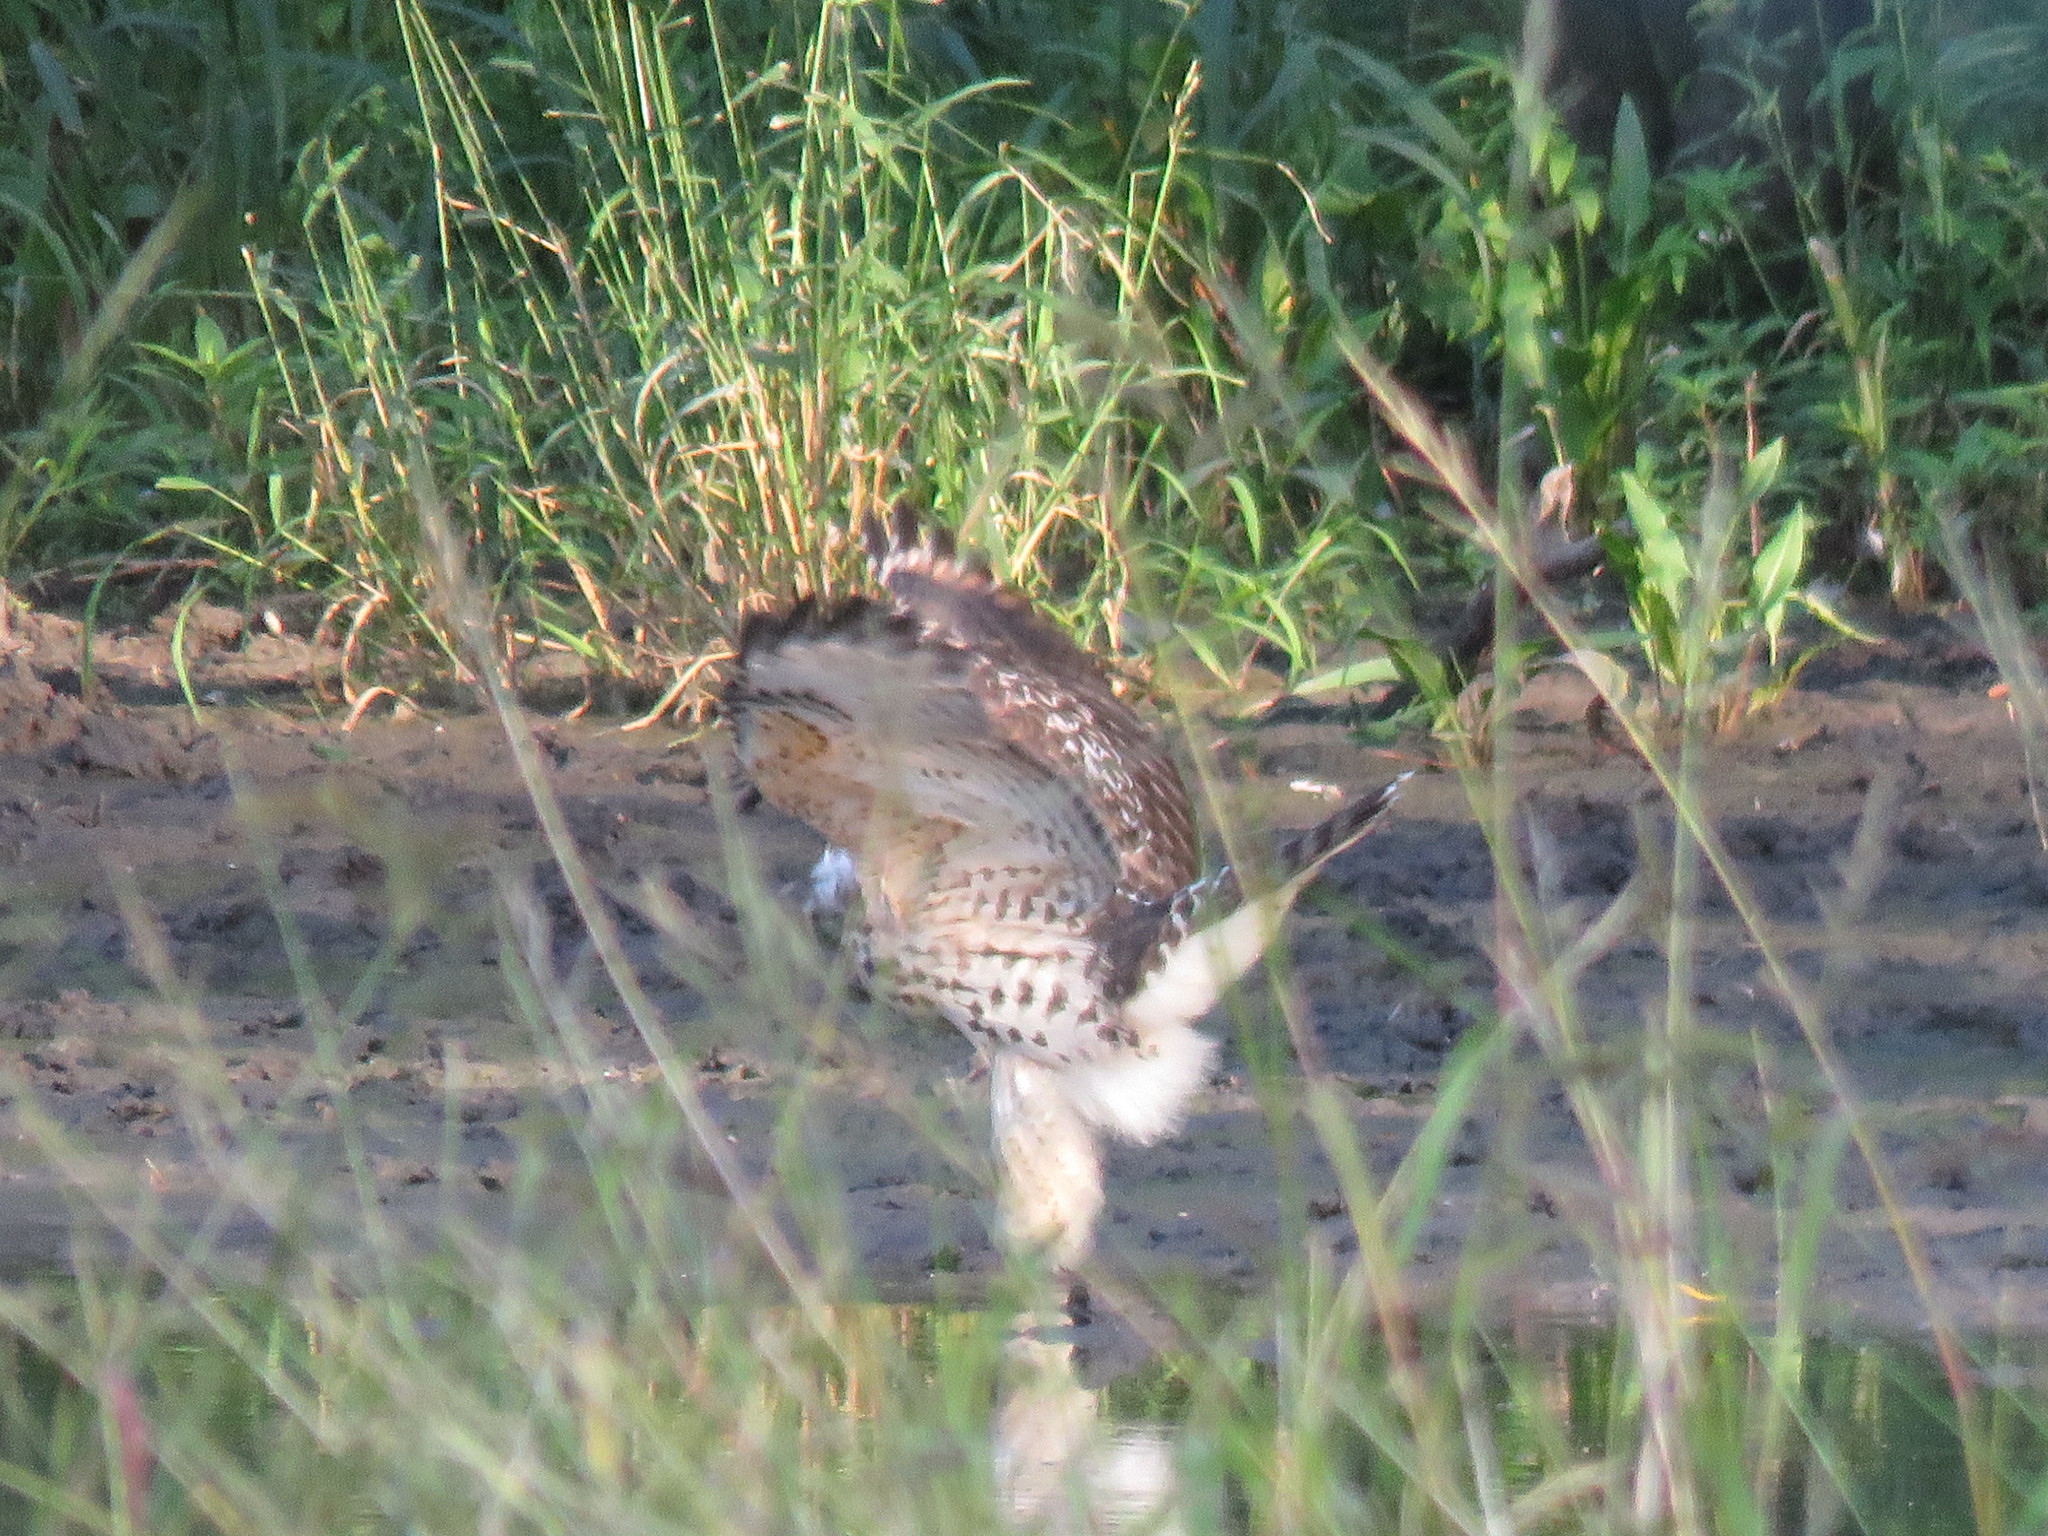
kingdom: Animalia
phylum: Chordata
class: Aves
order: Accipitriformes
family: Accipitridae
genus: Buteo
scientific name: Buteo lineatus
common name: Red-shouldered hawk
